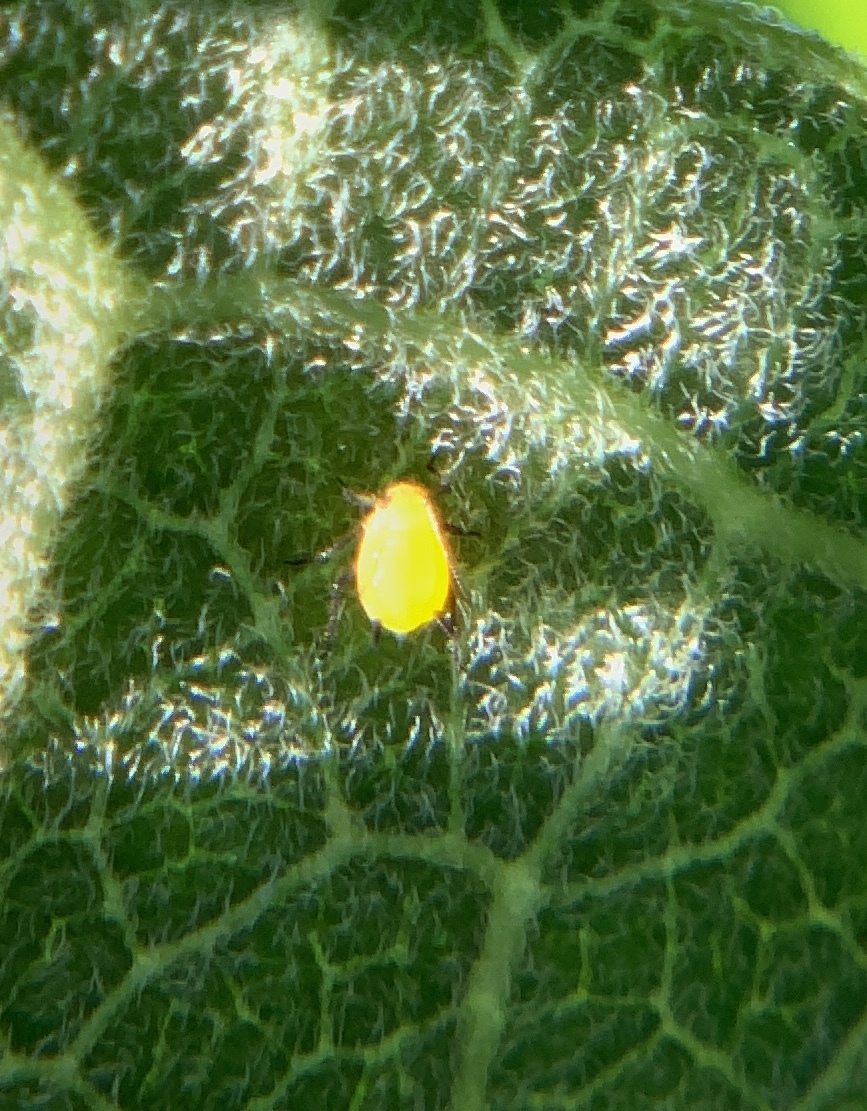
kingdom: Animalia
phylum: Arthropoda
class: Insecta
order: Hemiptera
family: Aphididae
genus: Aphis
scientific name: Aphis nerii
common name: Oleander aphid
